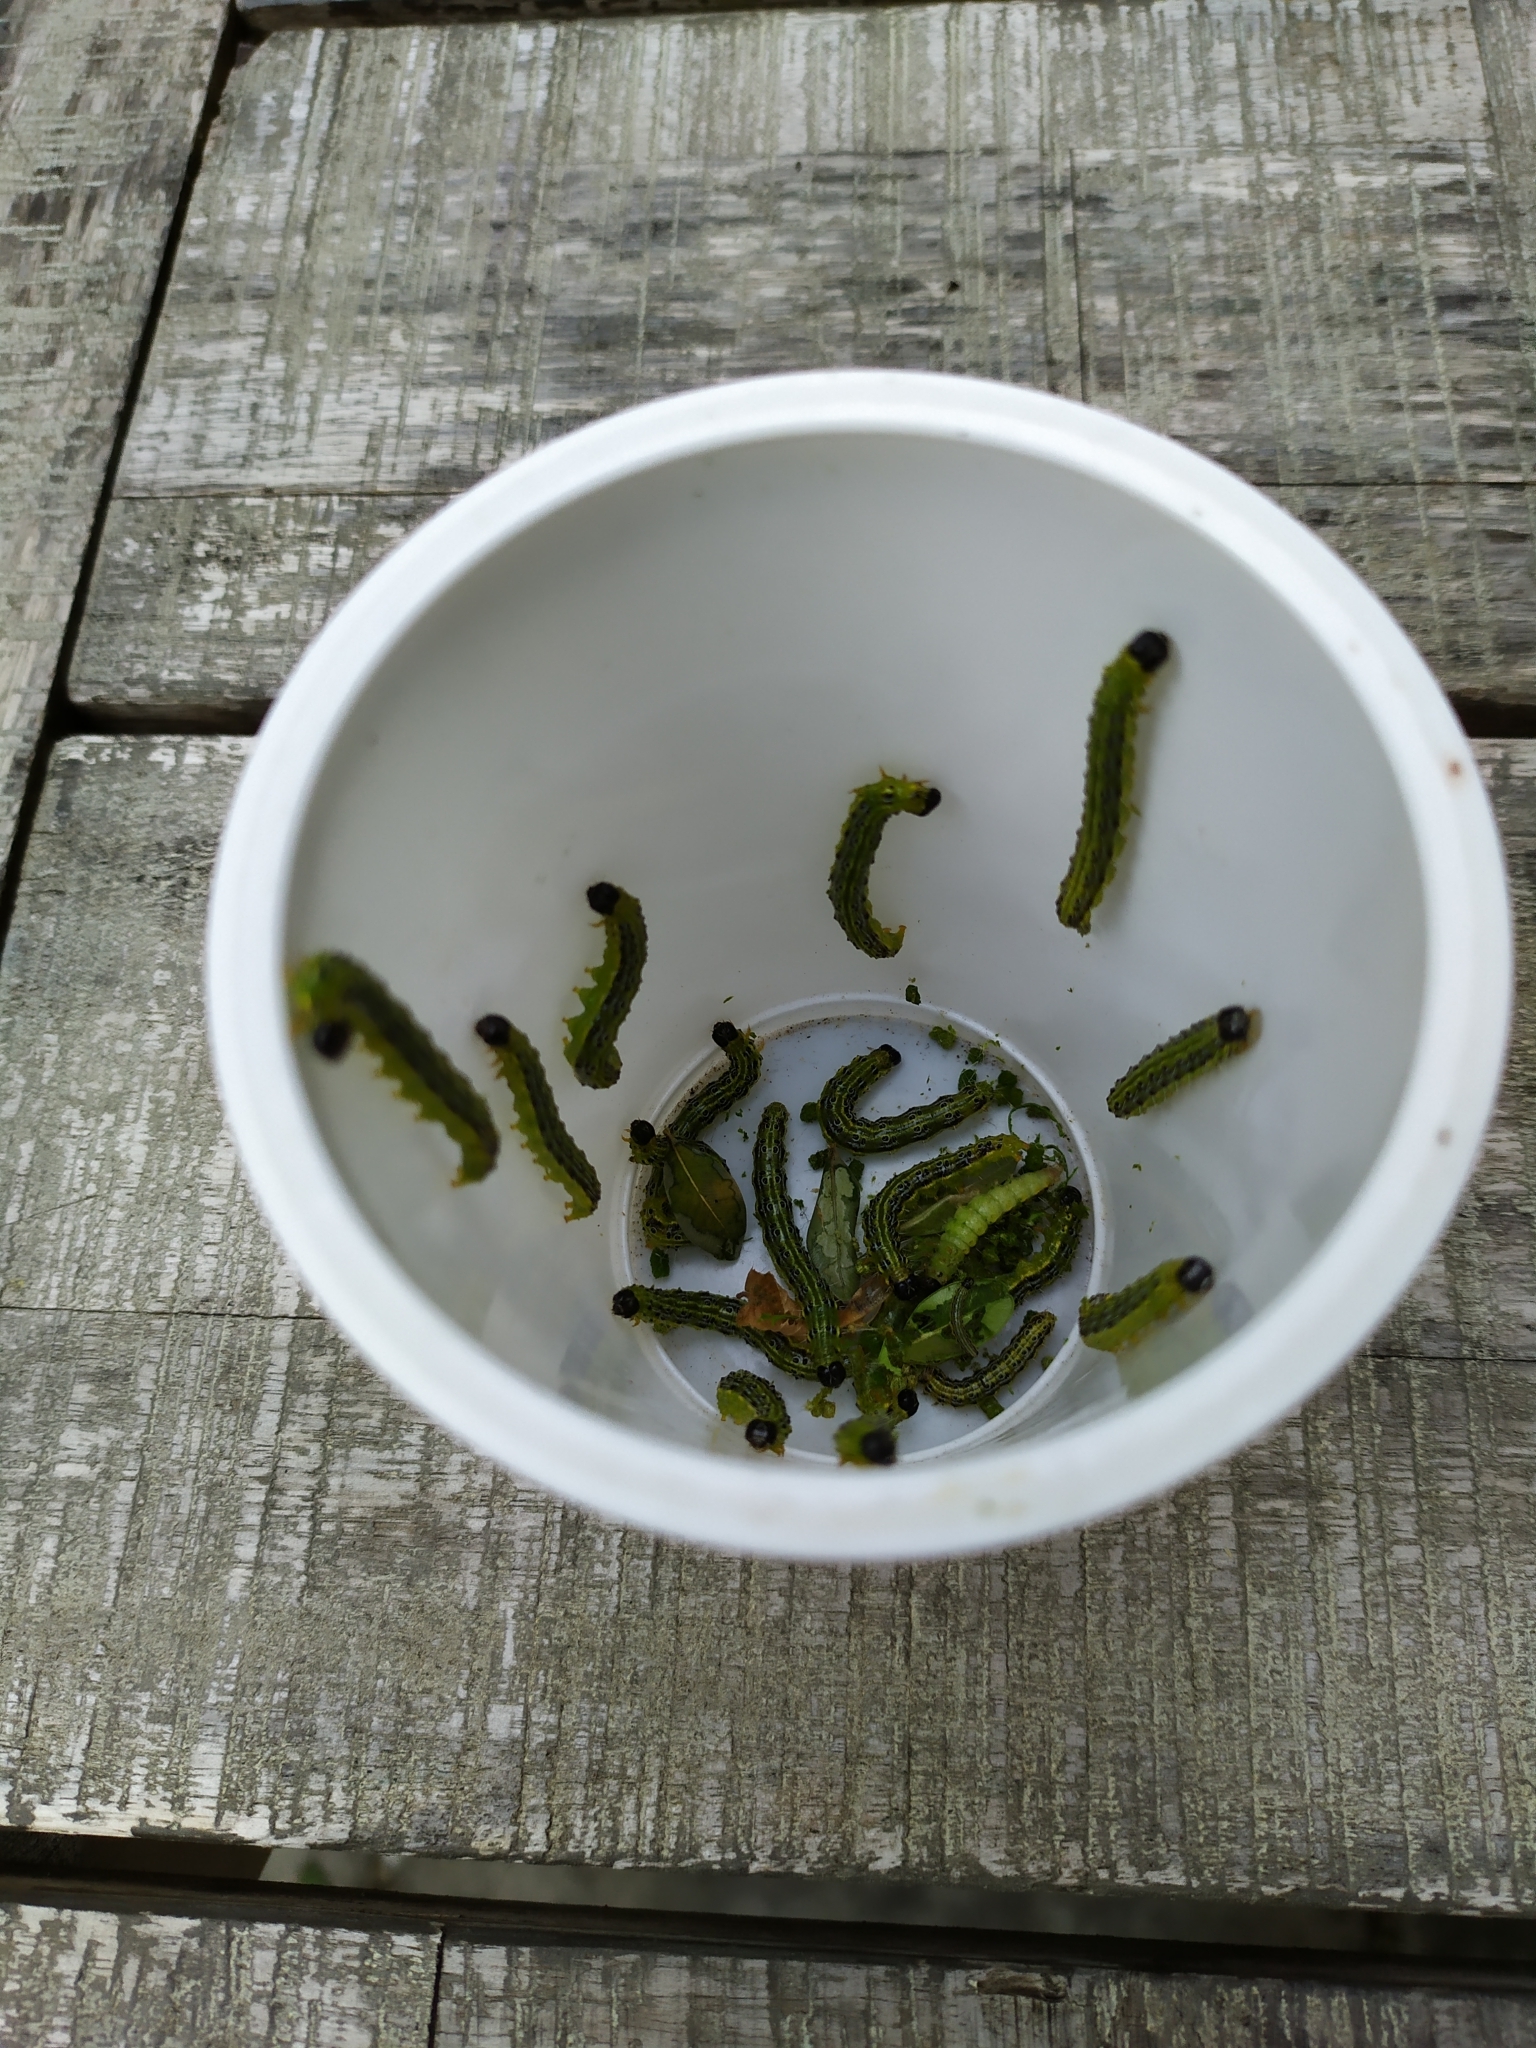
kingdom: Animalia
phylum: Arthropoda
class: Insecta
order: Lepidoptera
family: Crambidae
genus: Cydalima
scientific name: Cydalima perspectalis
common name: Box tree moth
